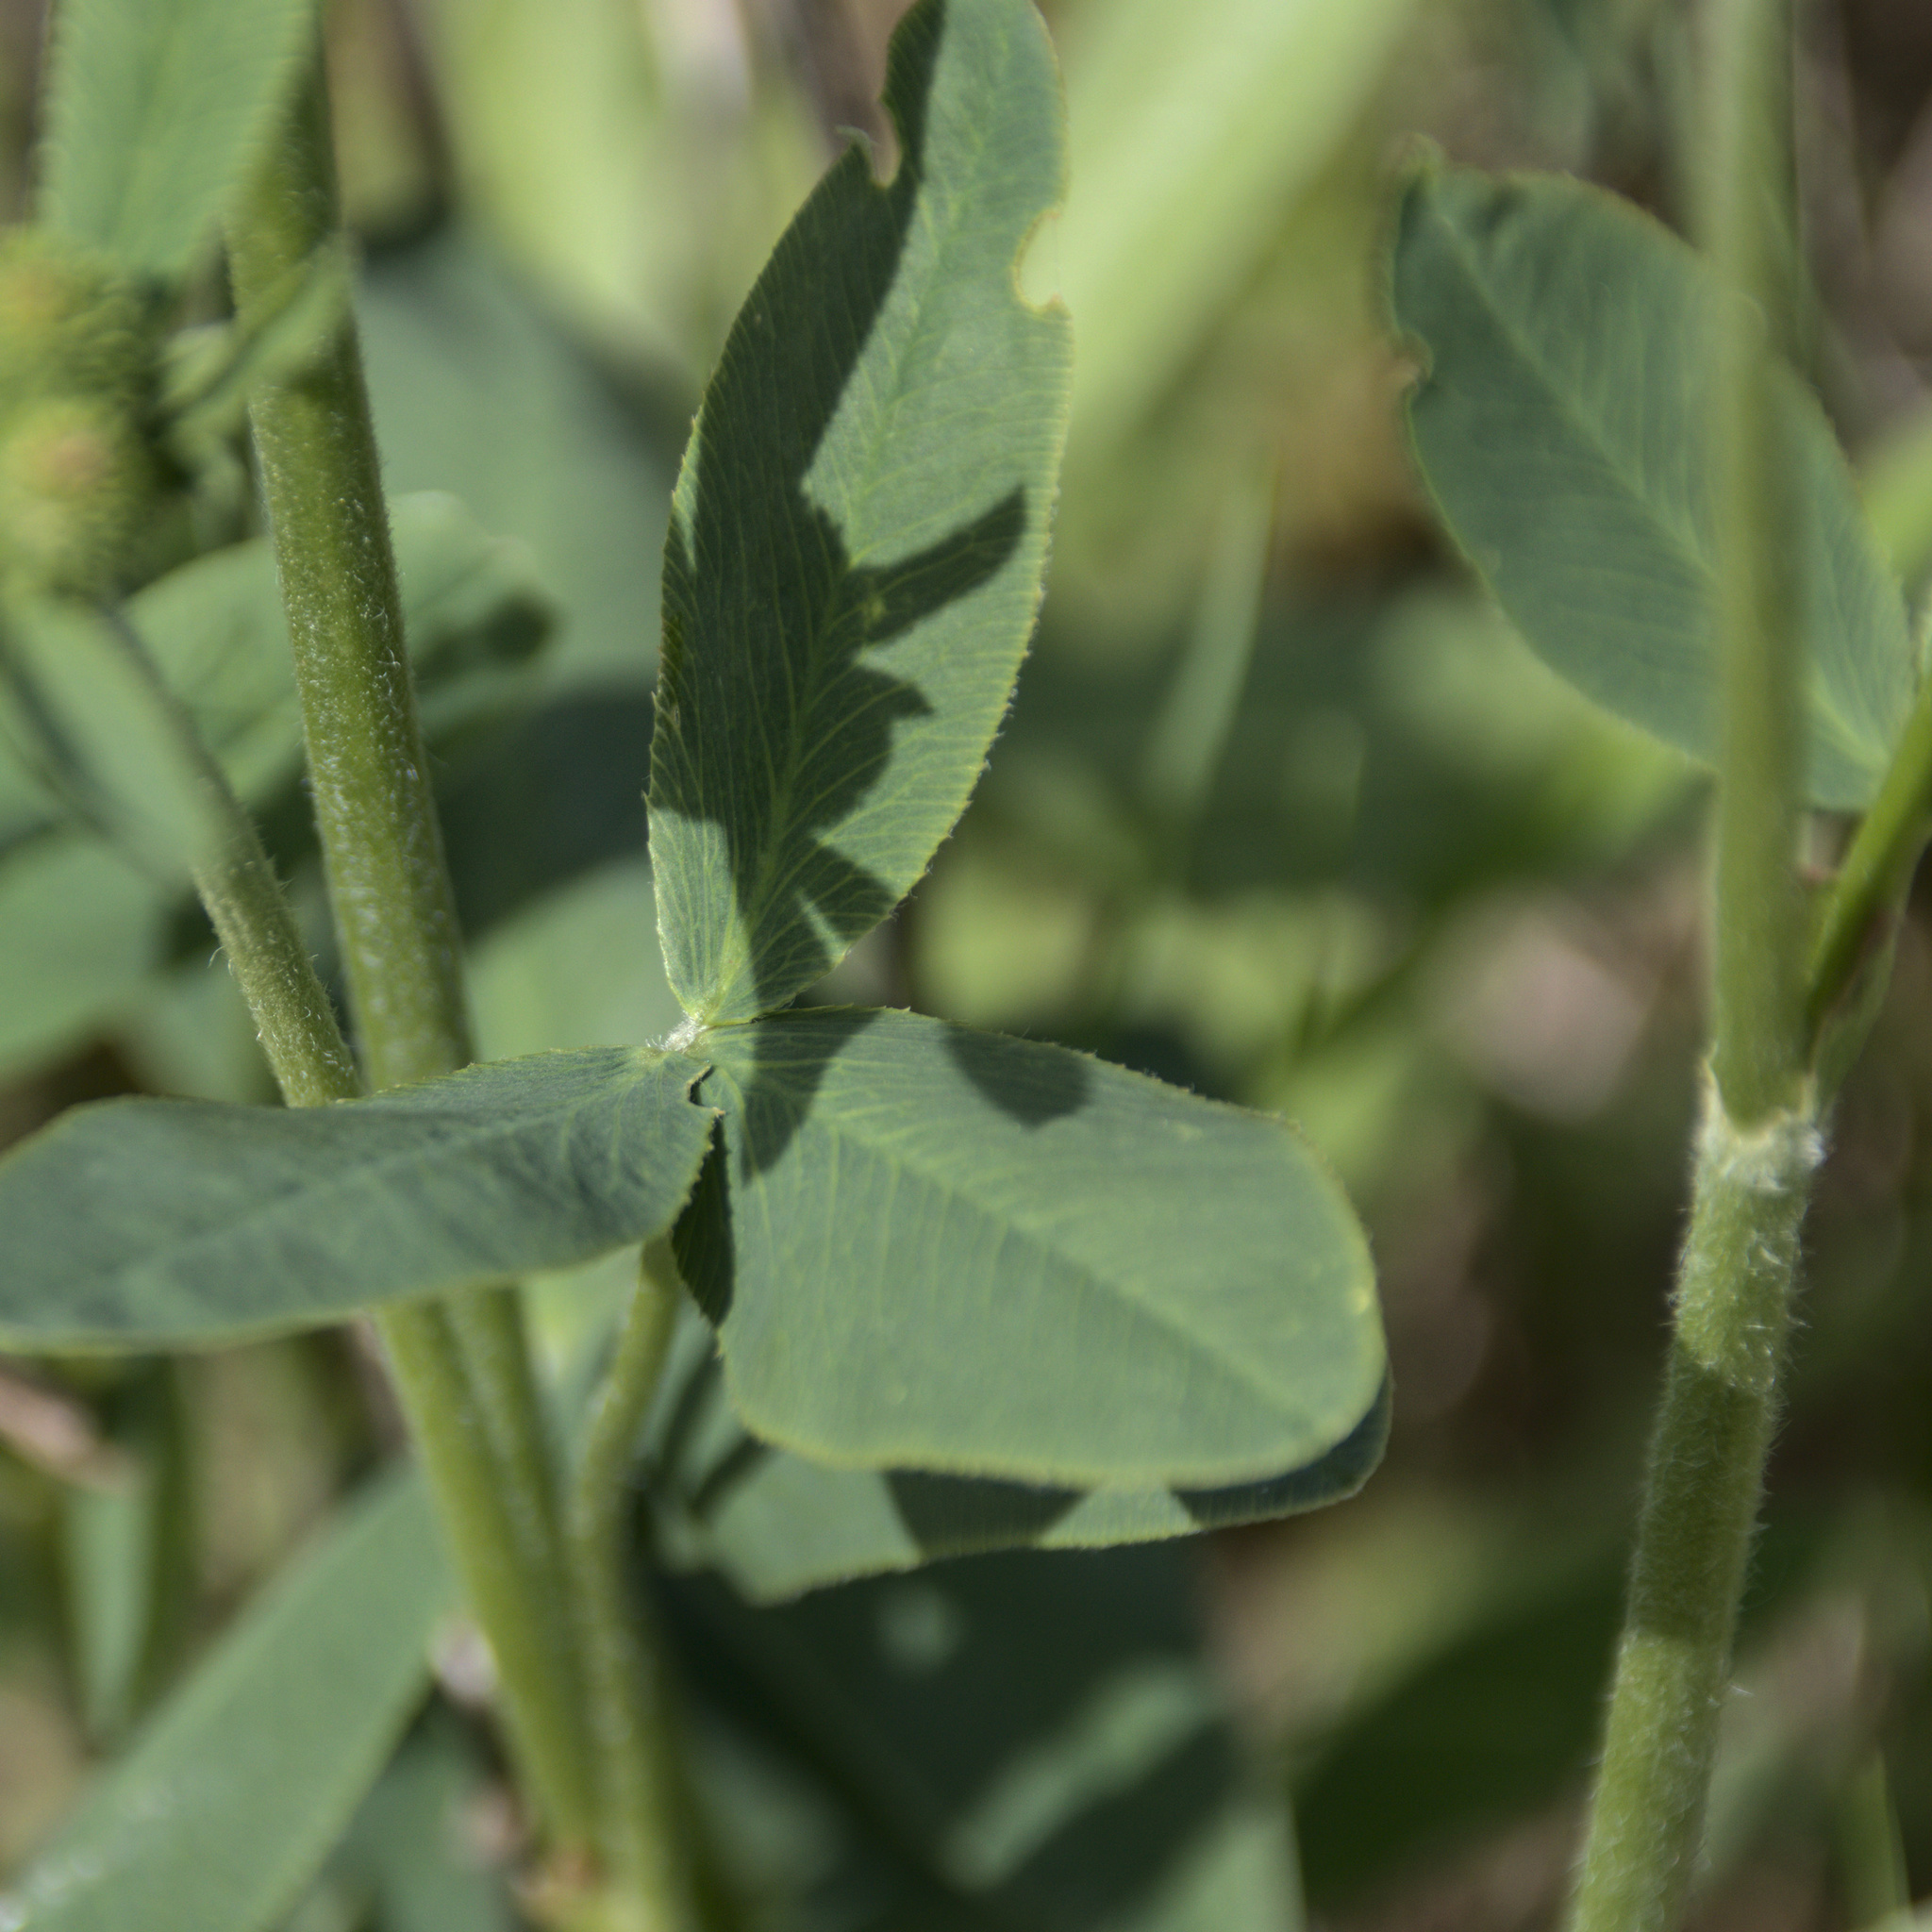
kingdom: Plantae
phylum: Tracheophyta
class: Magnoliopsida
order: Fabales
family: Fabaceae
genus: Trifolium
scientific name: Trifolium montanum
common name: Mountain clover
